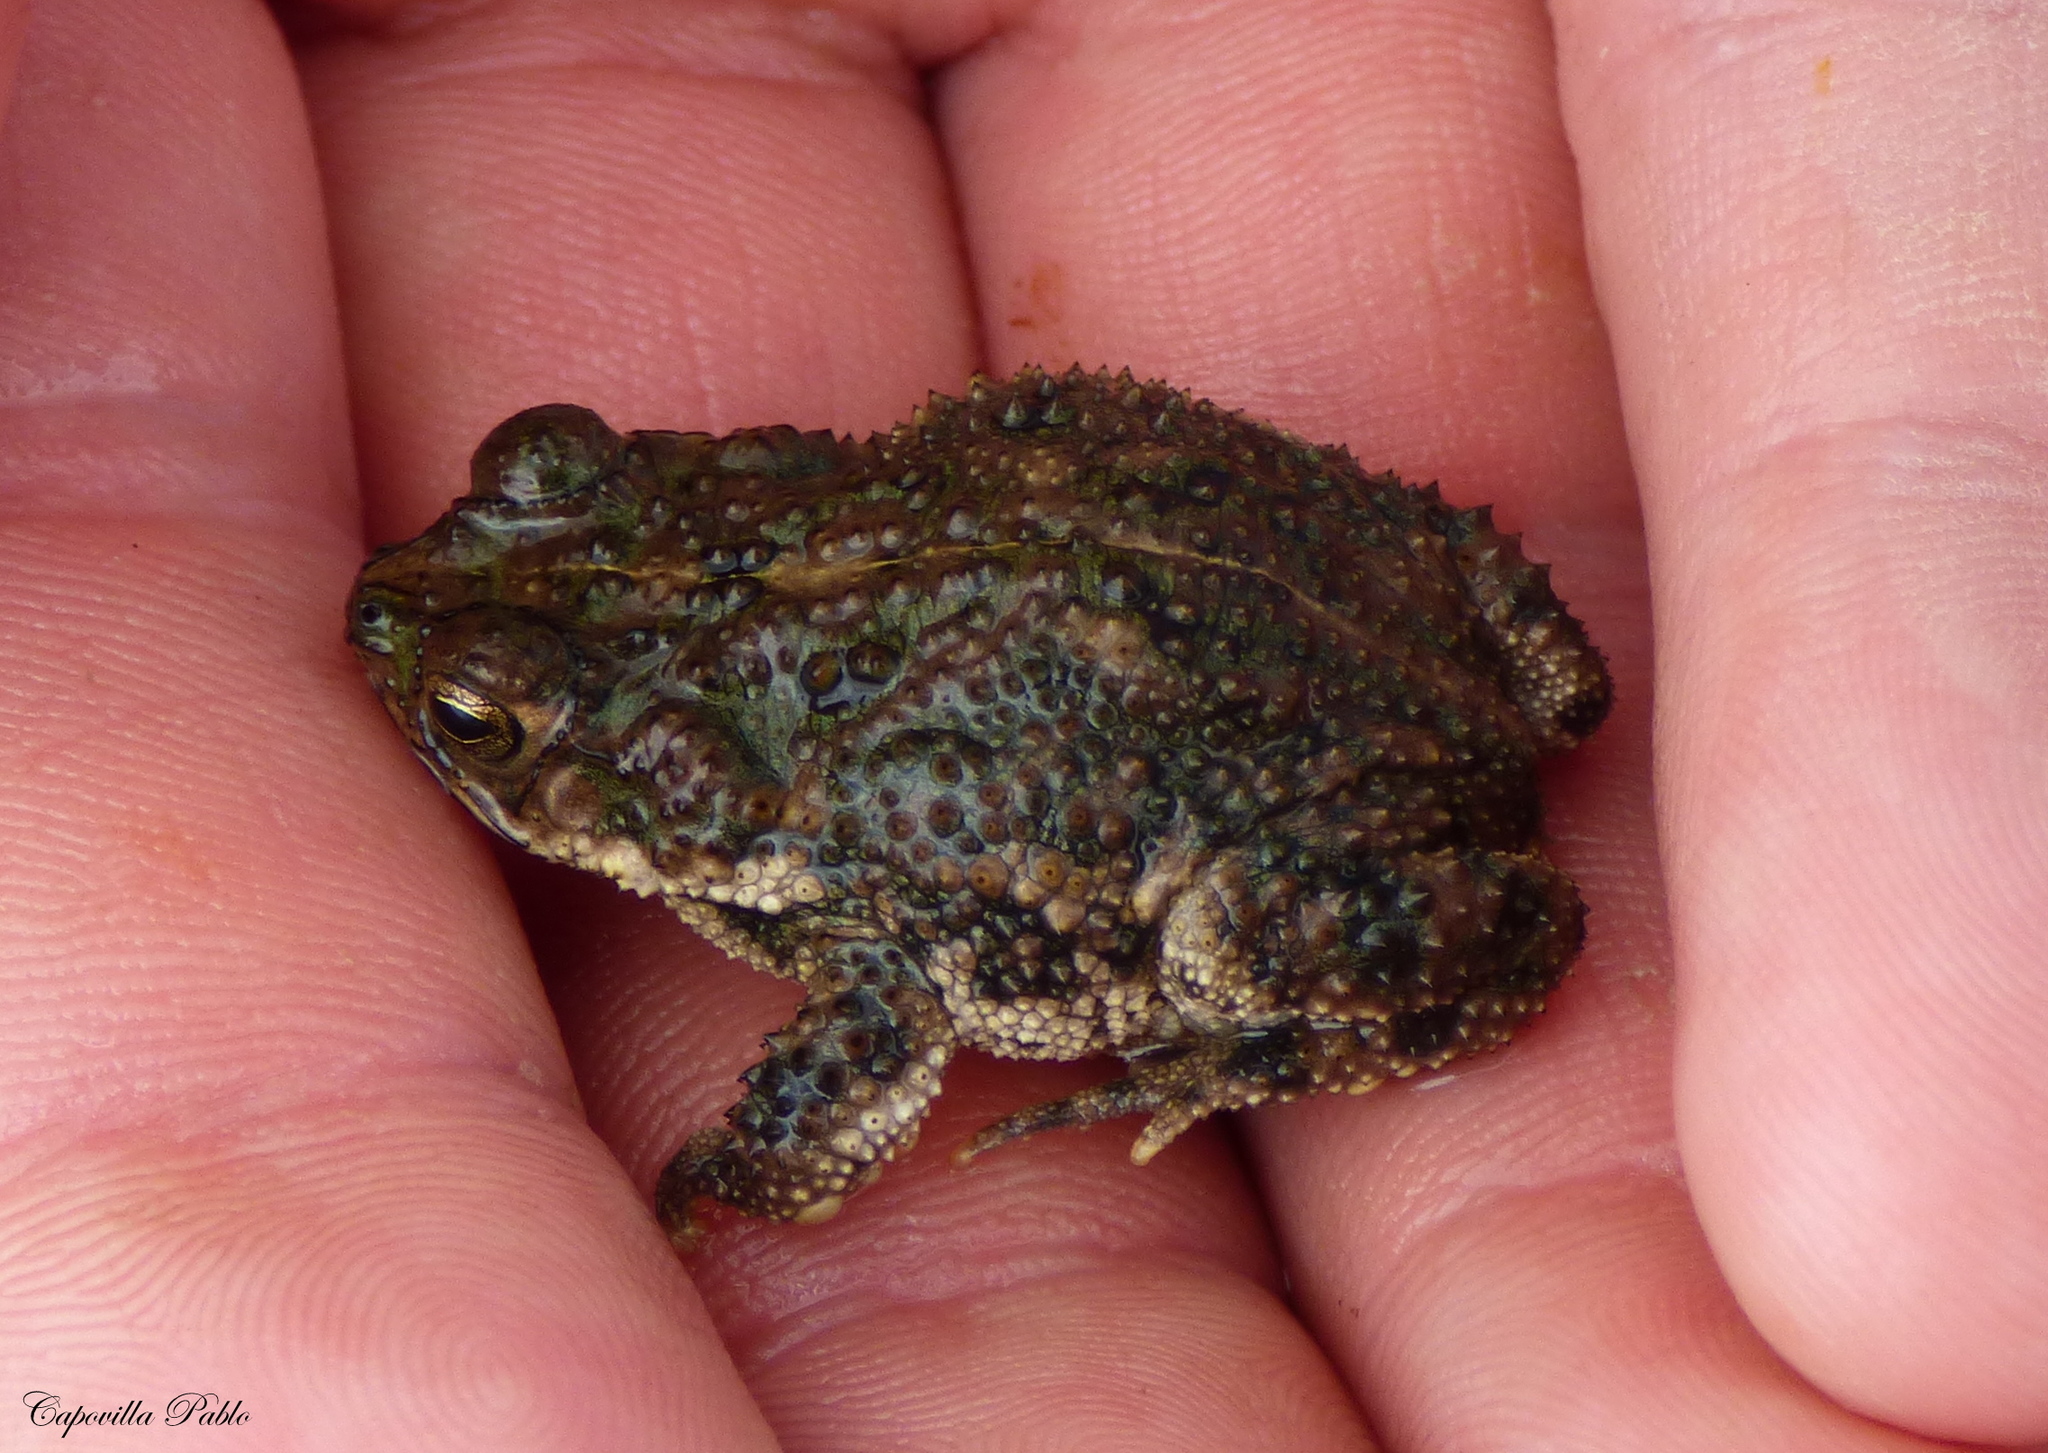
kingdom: Animalia
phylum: Chordata
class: Amphibia
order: Anura
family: Bufonidae
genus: Rhinella
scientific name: Rhinella dorbignyi
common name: D´orbigny’s toad
